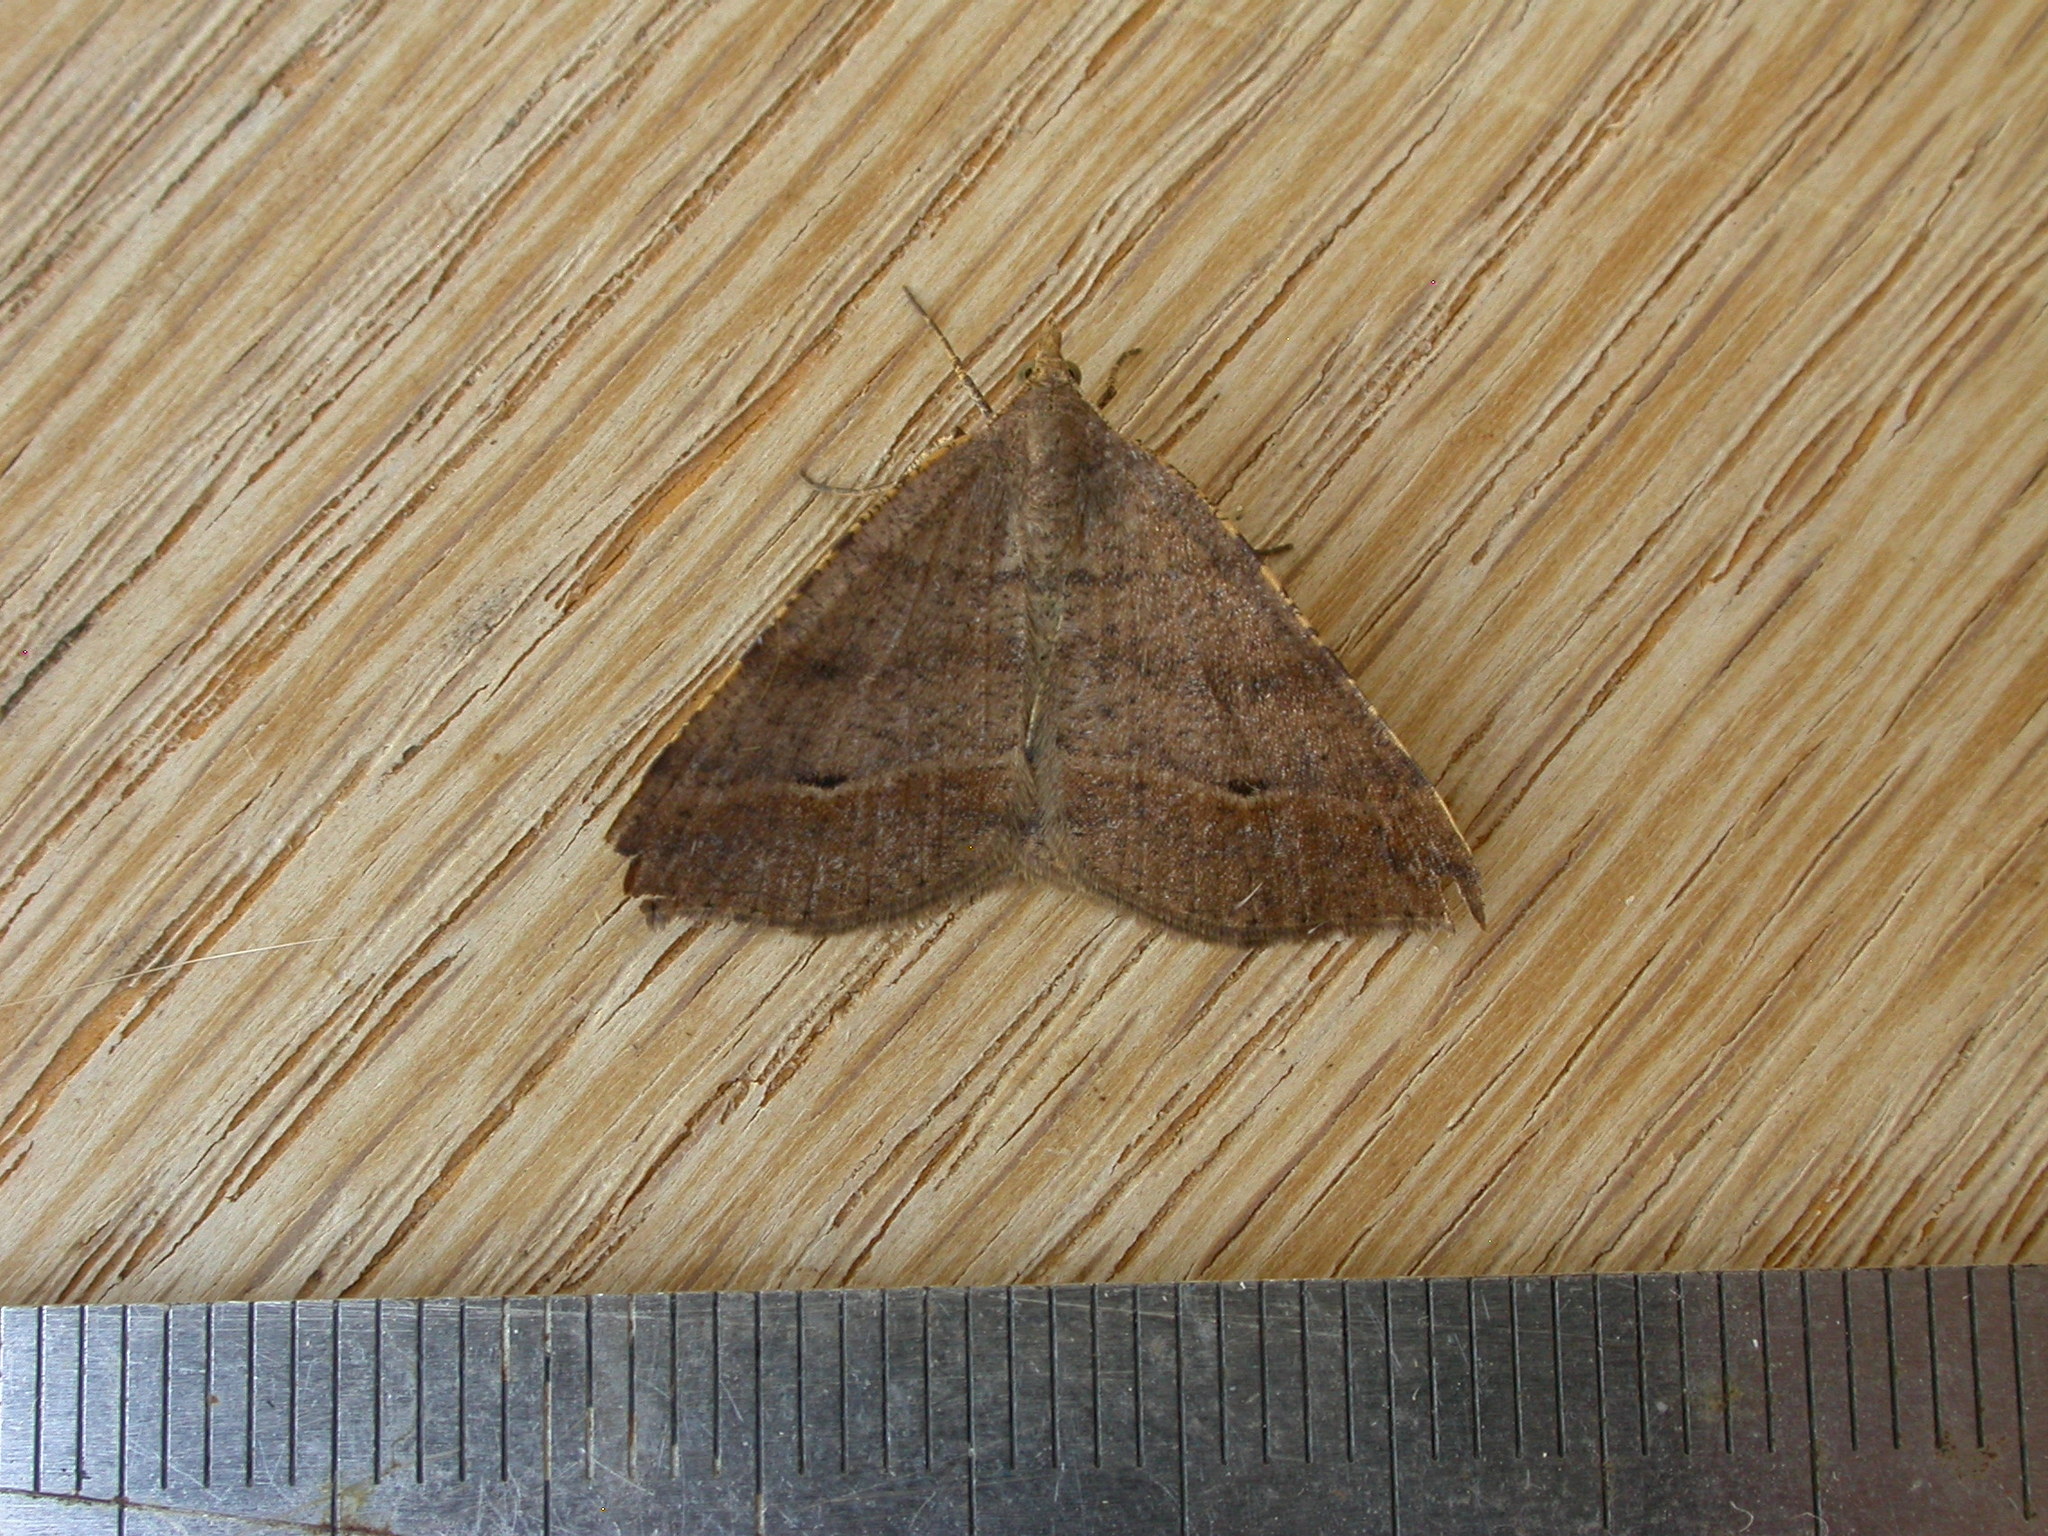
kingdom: Animalia
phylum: Arthropoda
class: Insecta
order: Lepidoptera
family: Geometridae
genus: Parosteodes
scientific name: Parosteodes fictiliaria
